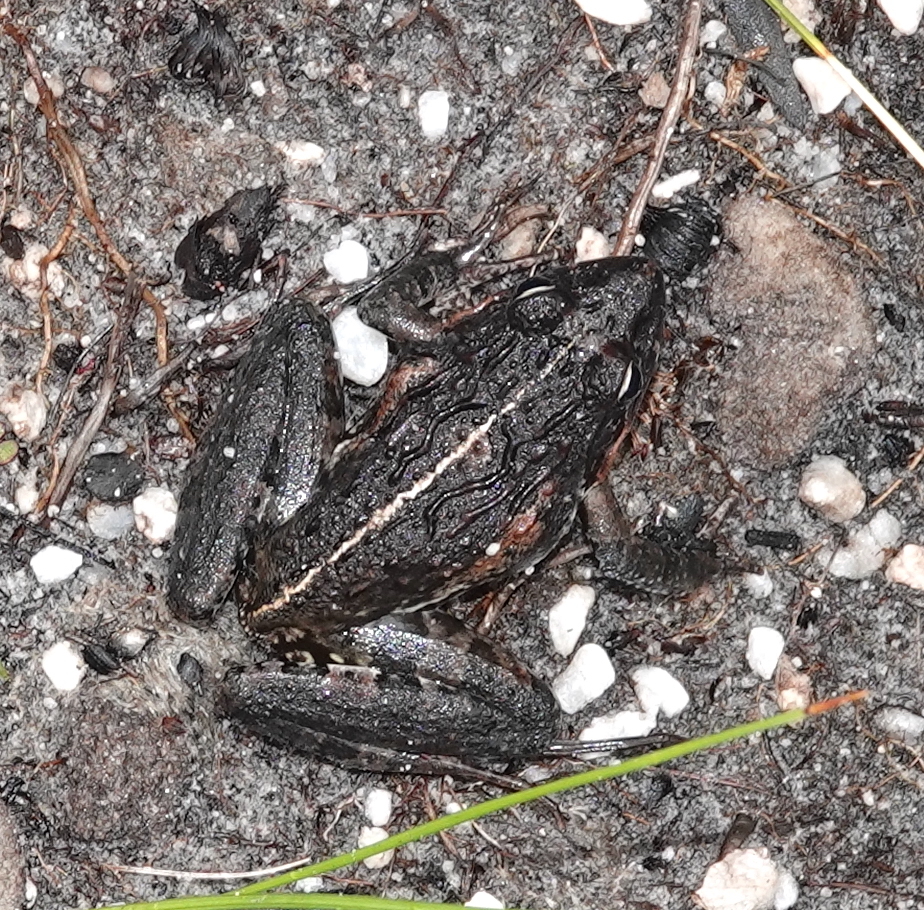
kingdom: Animalia
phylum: Chordata
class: Amphibia
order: Anura
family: Pyxicephalidae
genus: Strongylopus
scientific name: Strongylopus grayii
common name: Gray's stream frog
